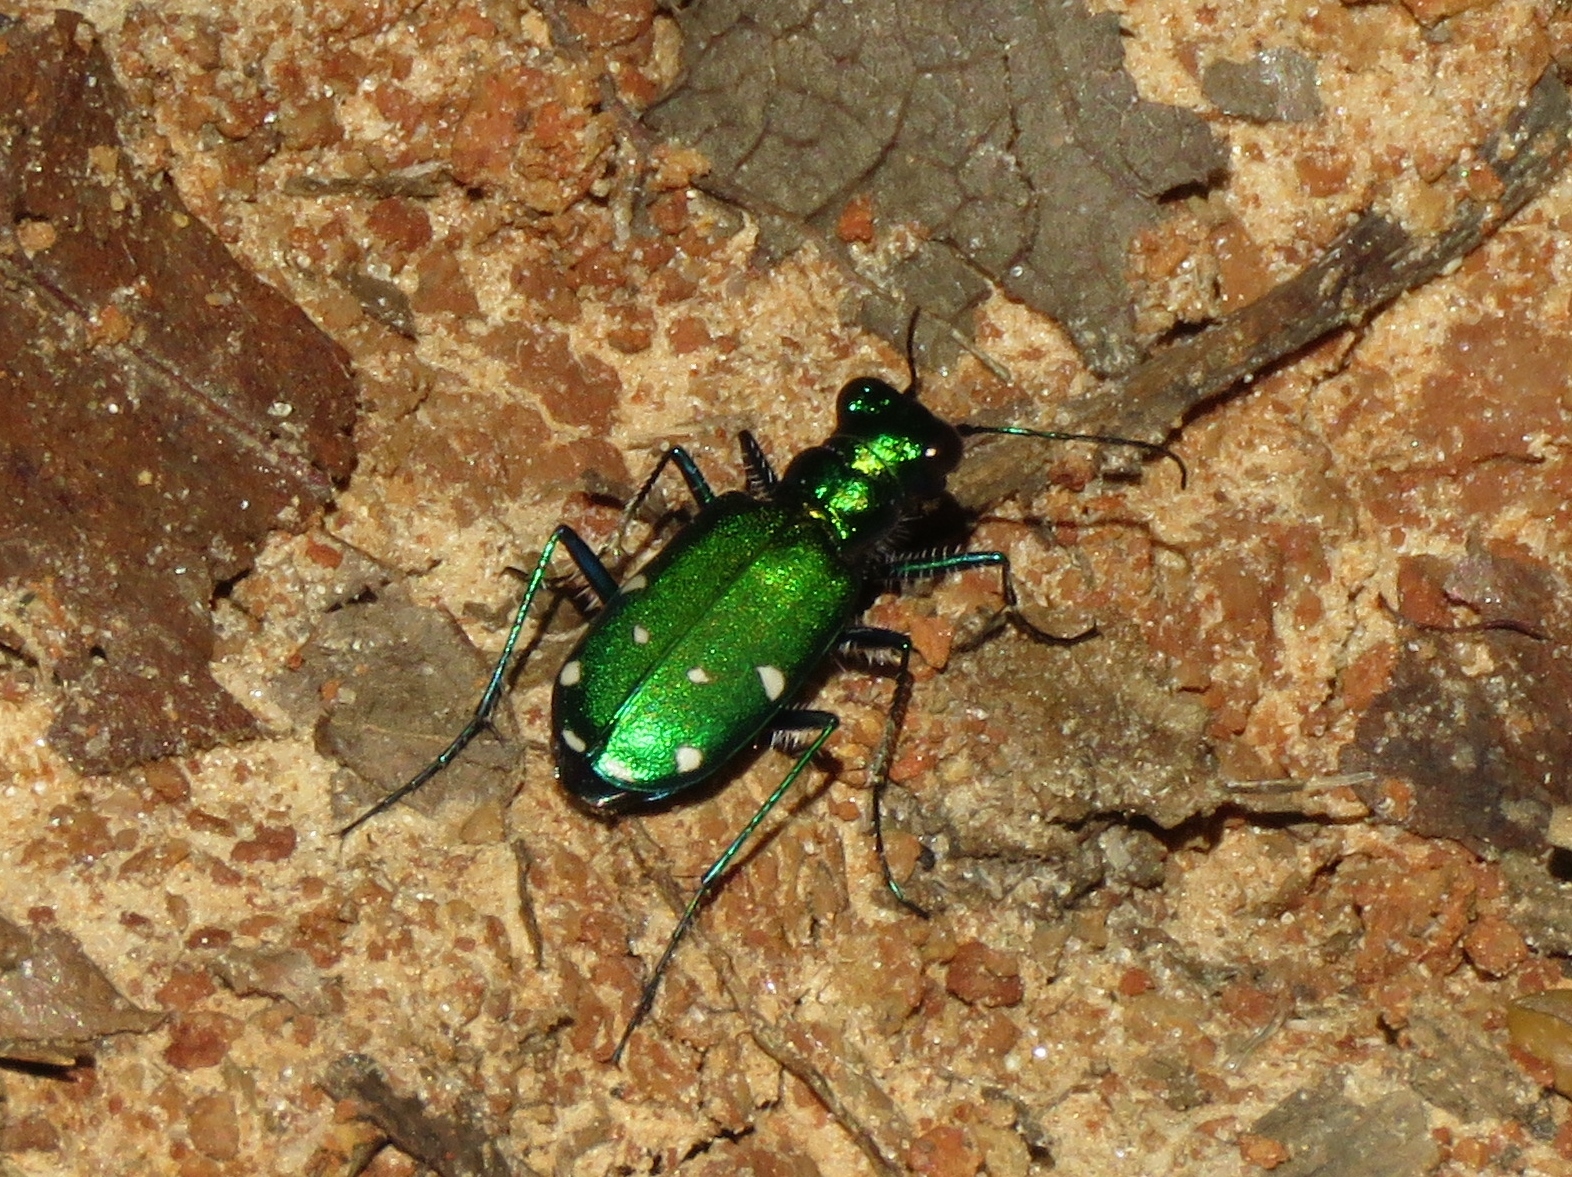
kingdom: Animalia
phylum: Arthropoda
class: Insecta
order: Coleoptera
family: Carabidae
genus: Cicindela
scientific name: Cicindela sexguttata
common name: Six-spotted tiger beetle
